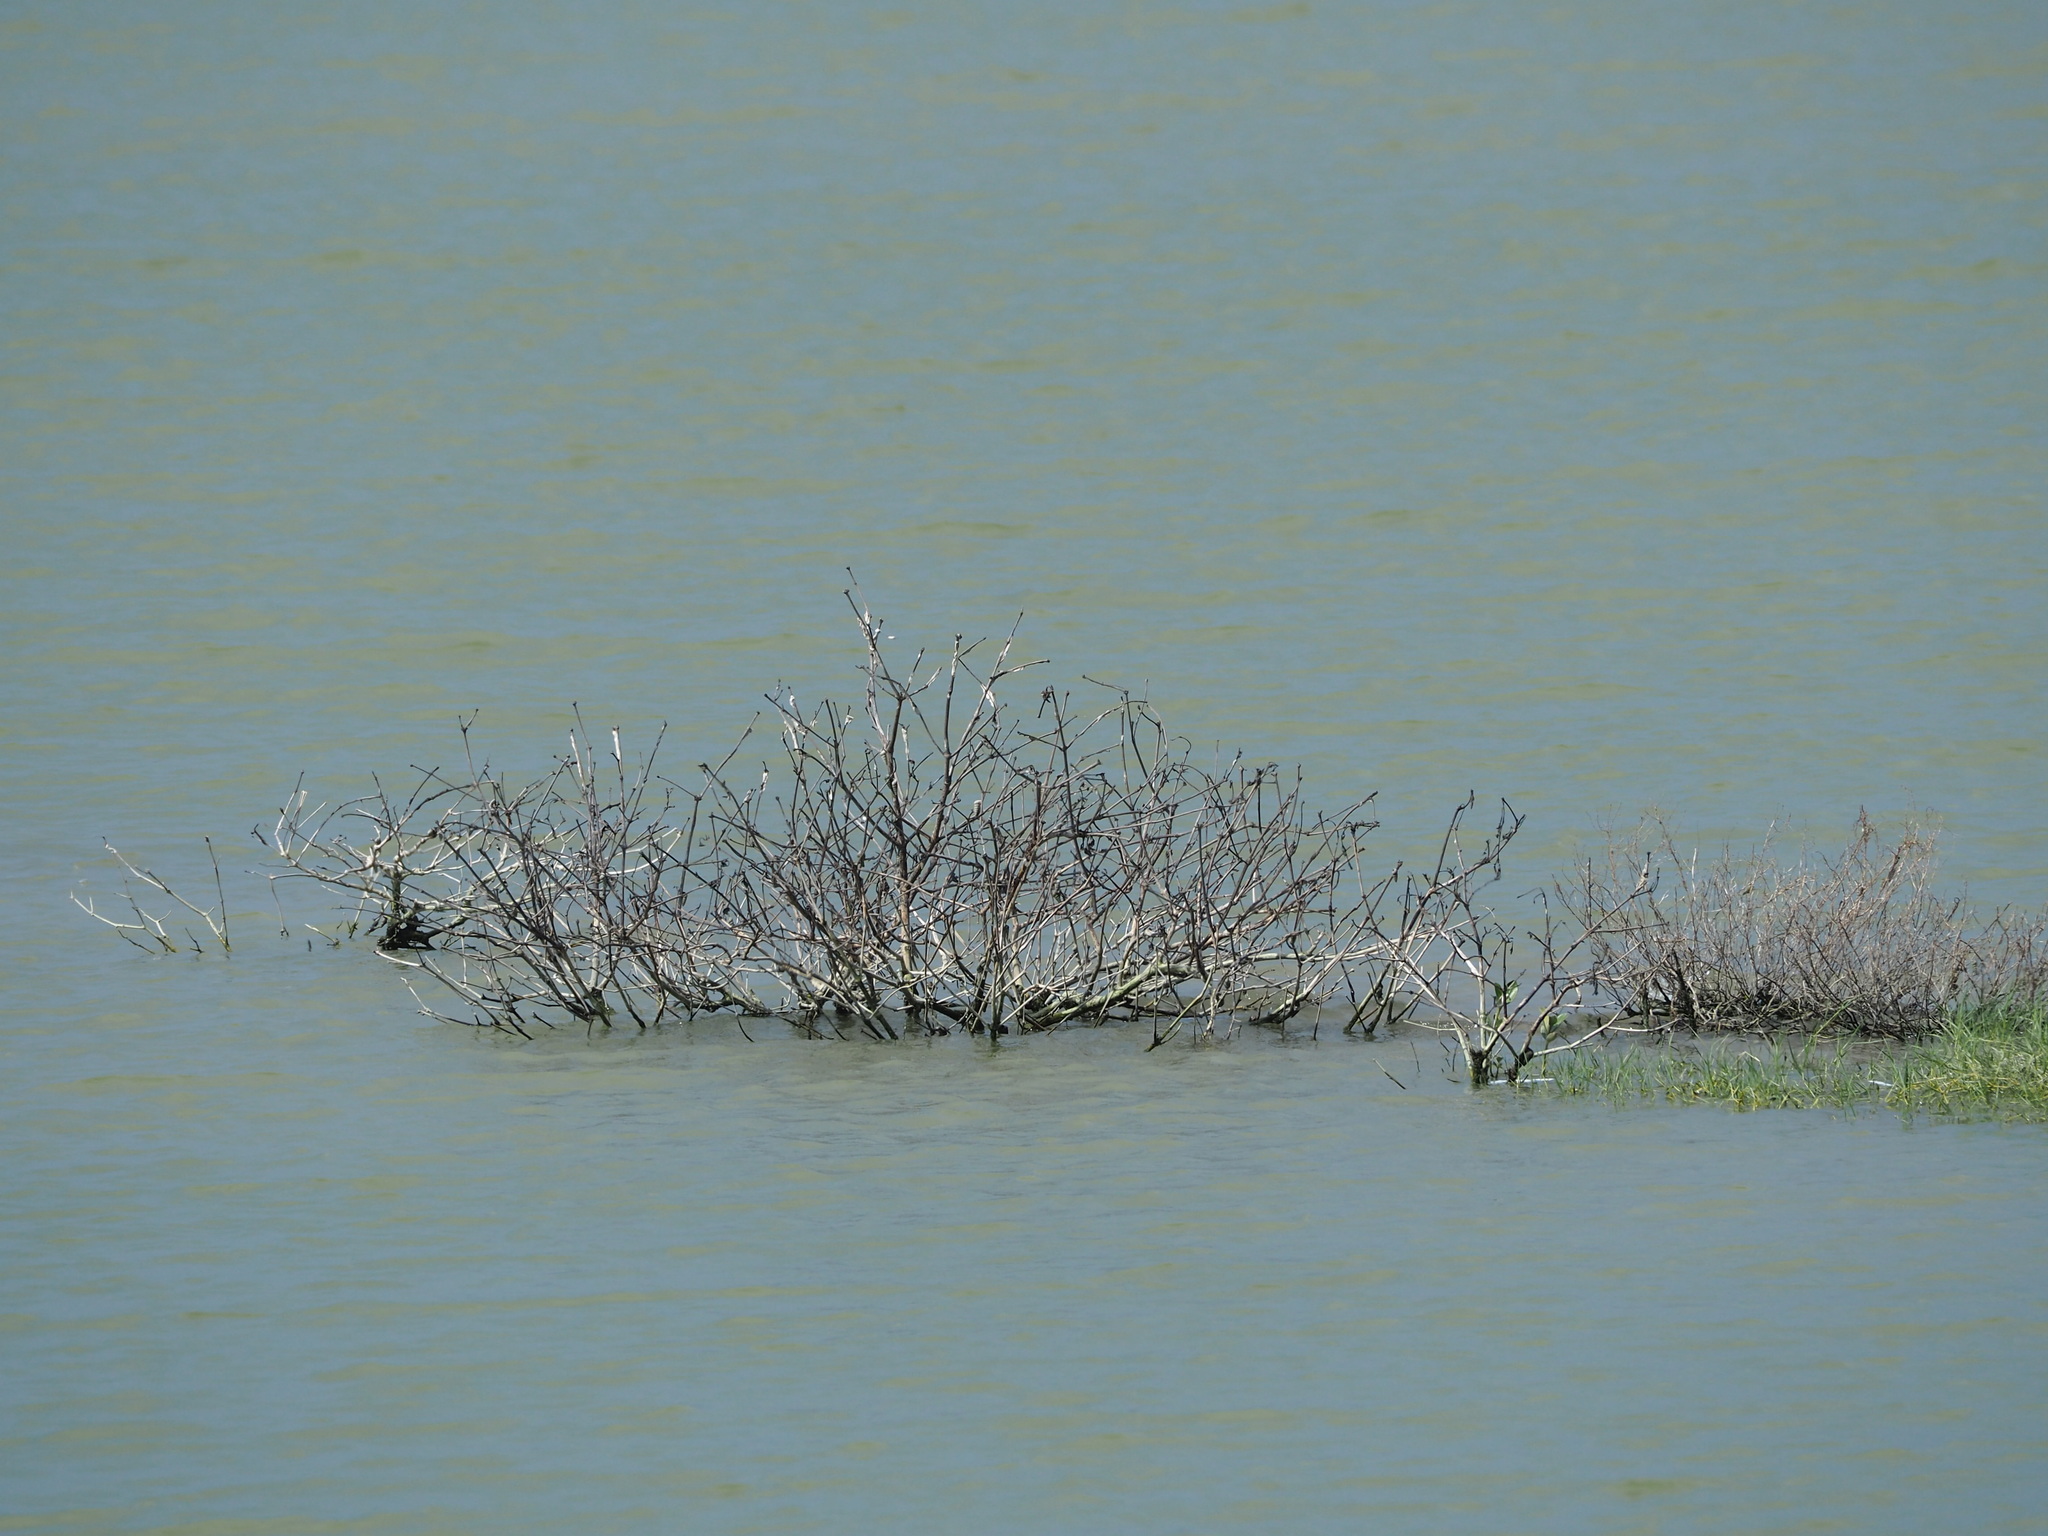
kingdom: Plantae
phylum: Tracheophyta
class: Magnoliopsida
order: Lamiales
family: Acanthaceae
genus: Avicennia
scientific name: Avicennia marina
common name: Gray mangrove
